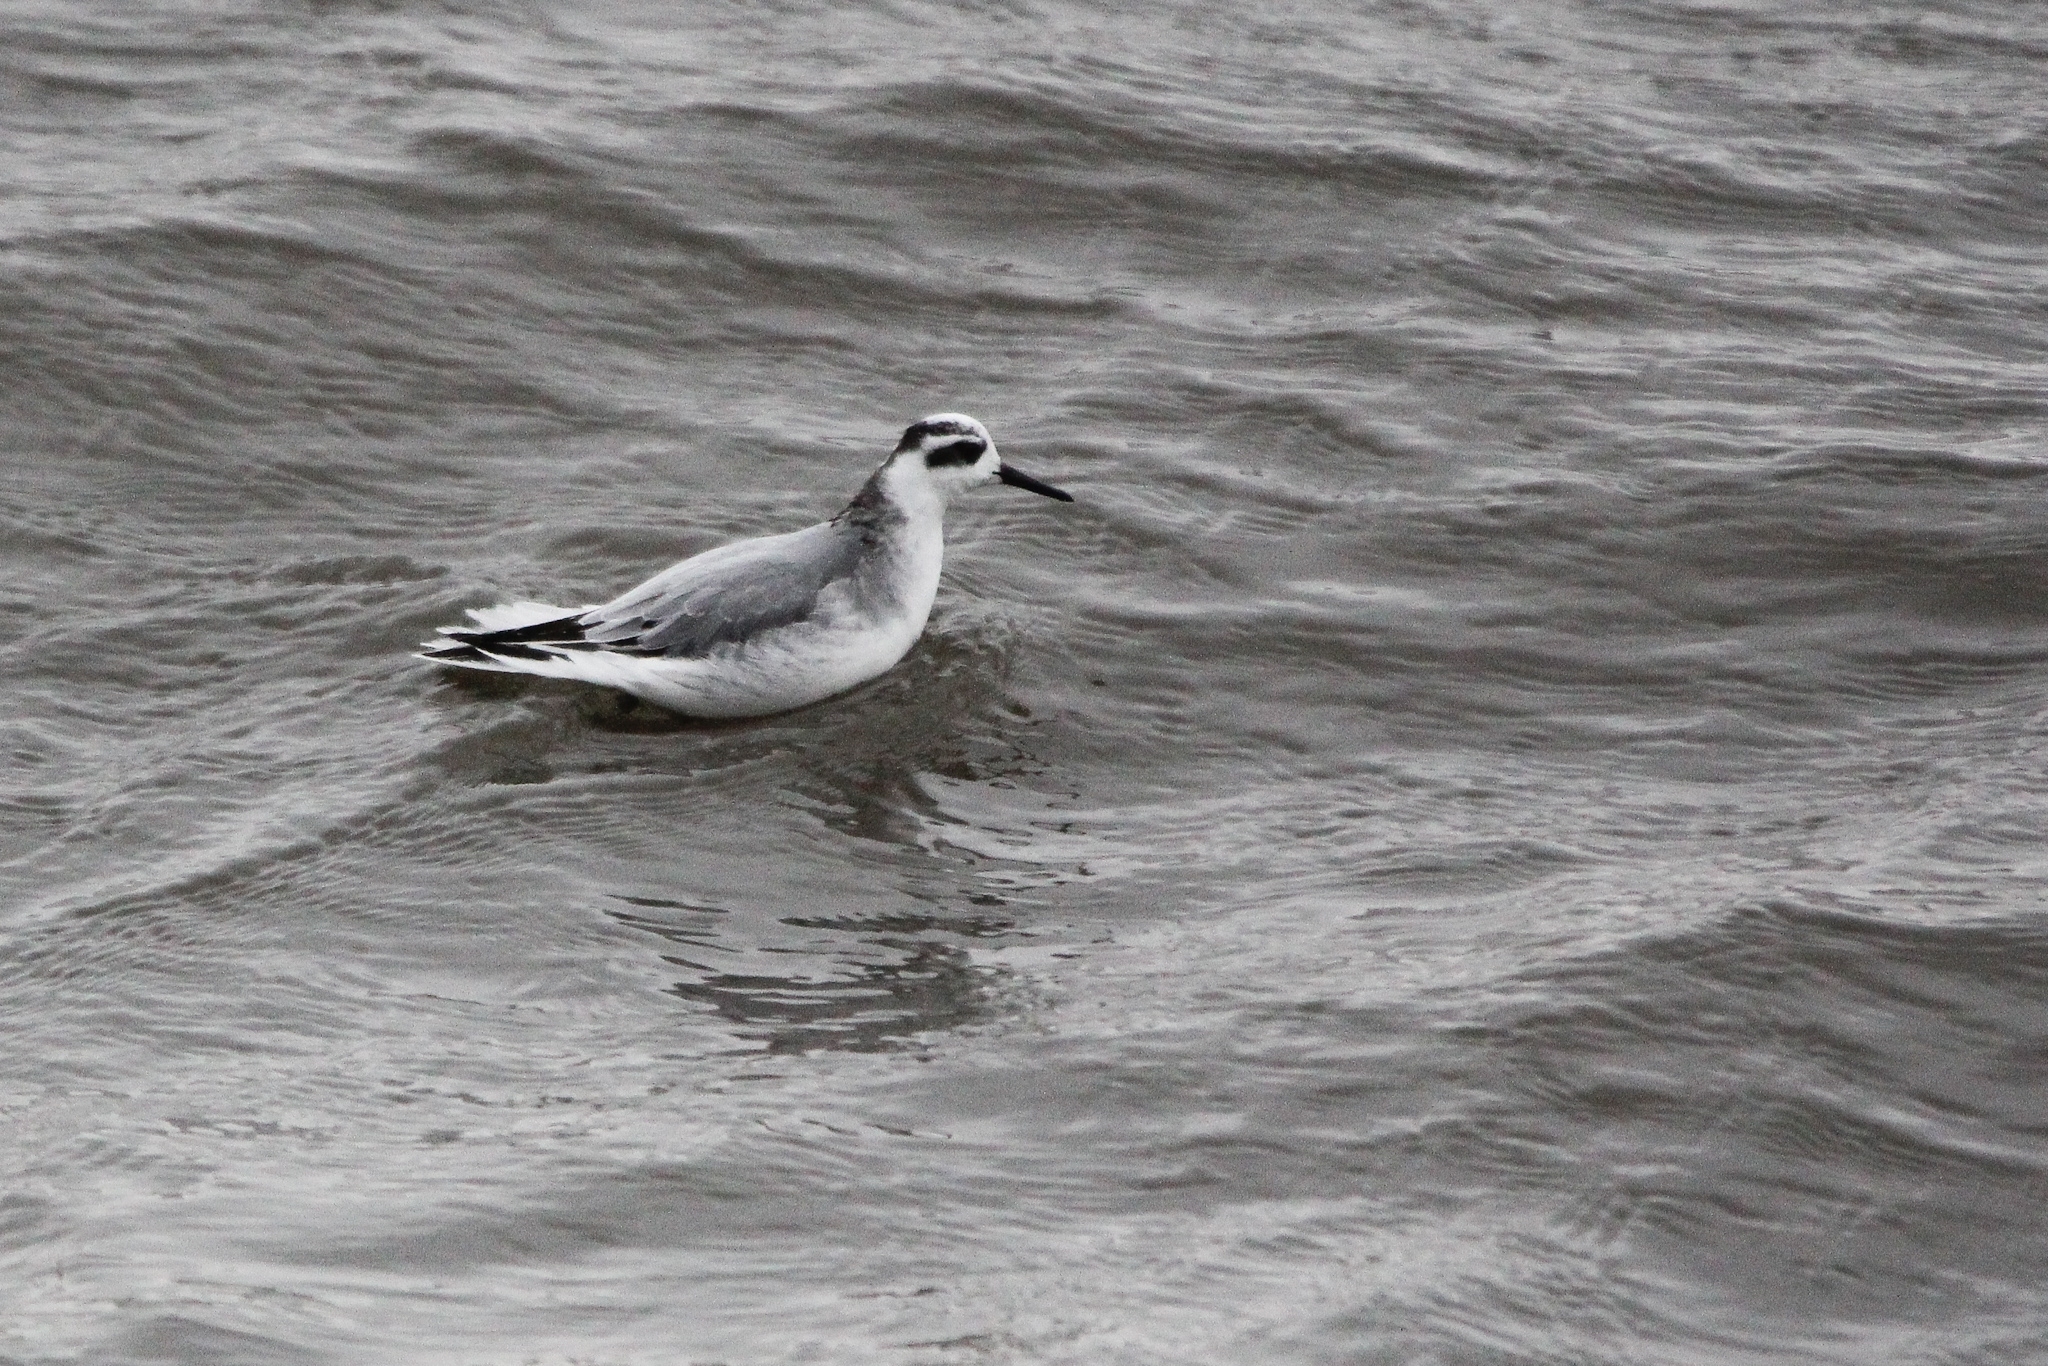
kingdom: Animalia
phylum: Chordata
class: Aves
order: Charadriiformes
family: Scolopacidae
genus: Phalaropus
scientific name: Phalaropus fulicarius
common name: Red phalarope
